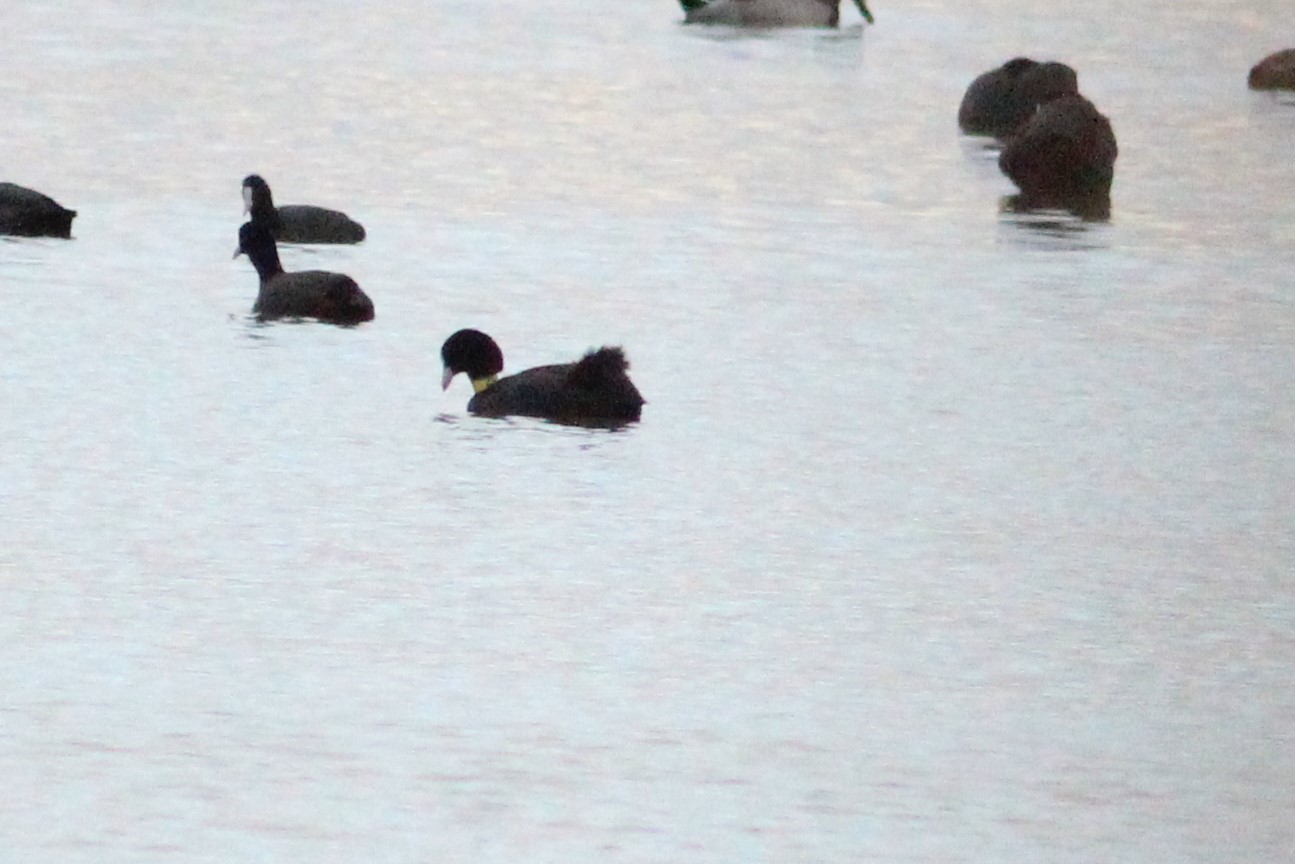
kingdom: Animalia
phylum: Chordata
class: Aves
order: Gruiformes
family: Rallidae
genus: Fulica
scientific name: Fulica atra
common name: Eurasian coot
